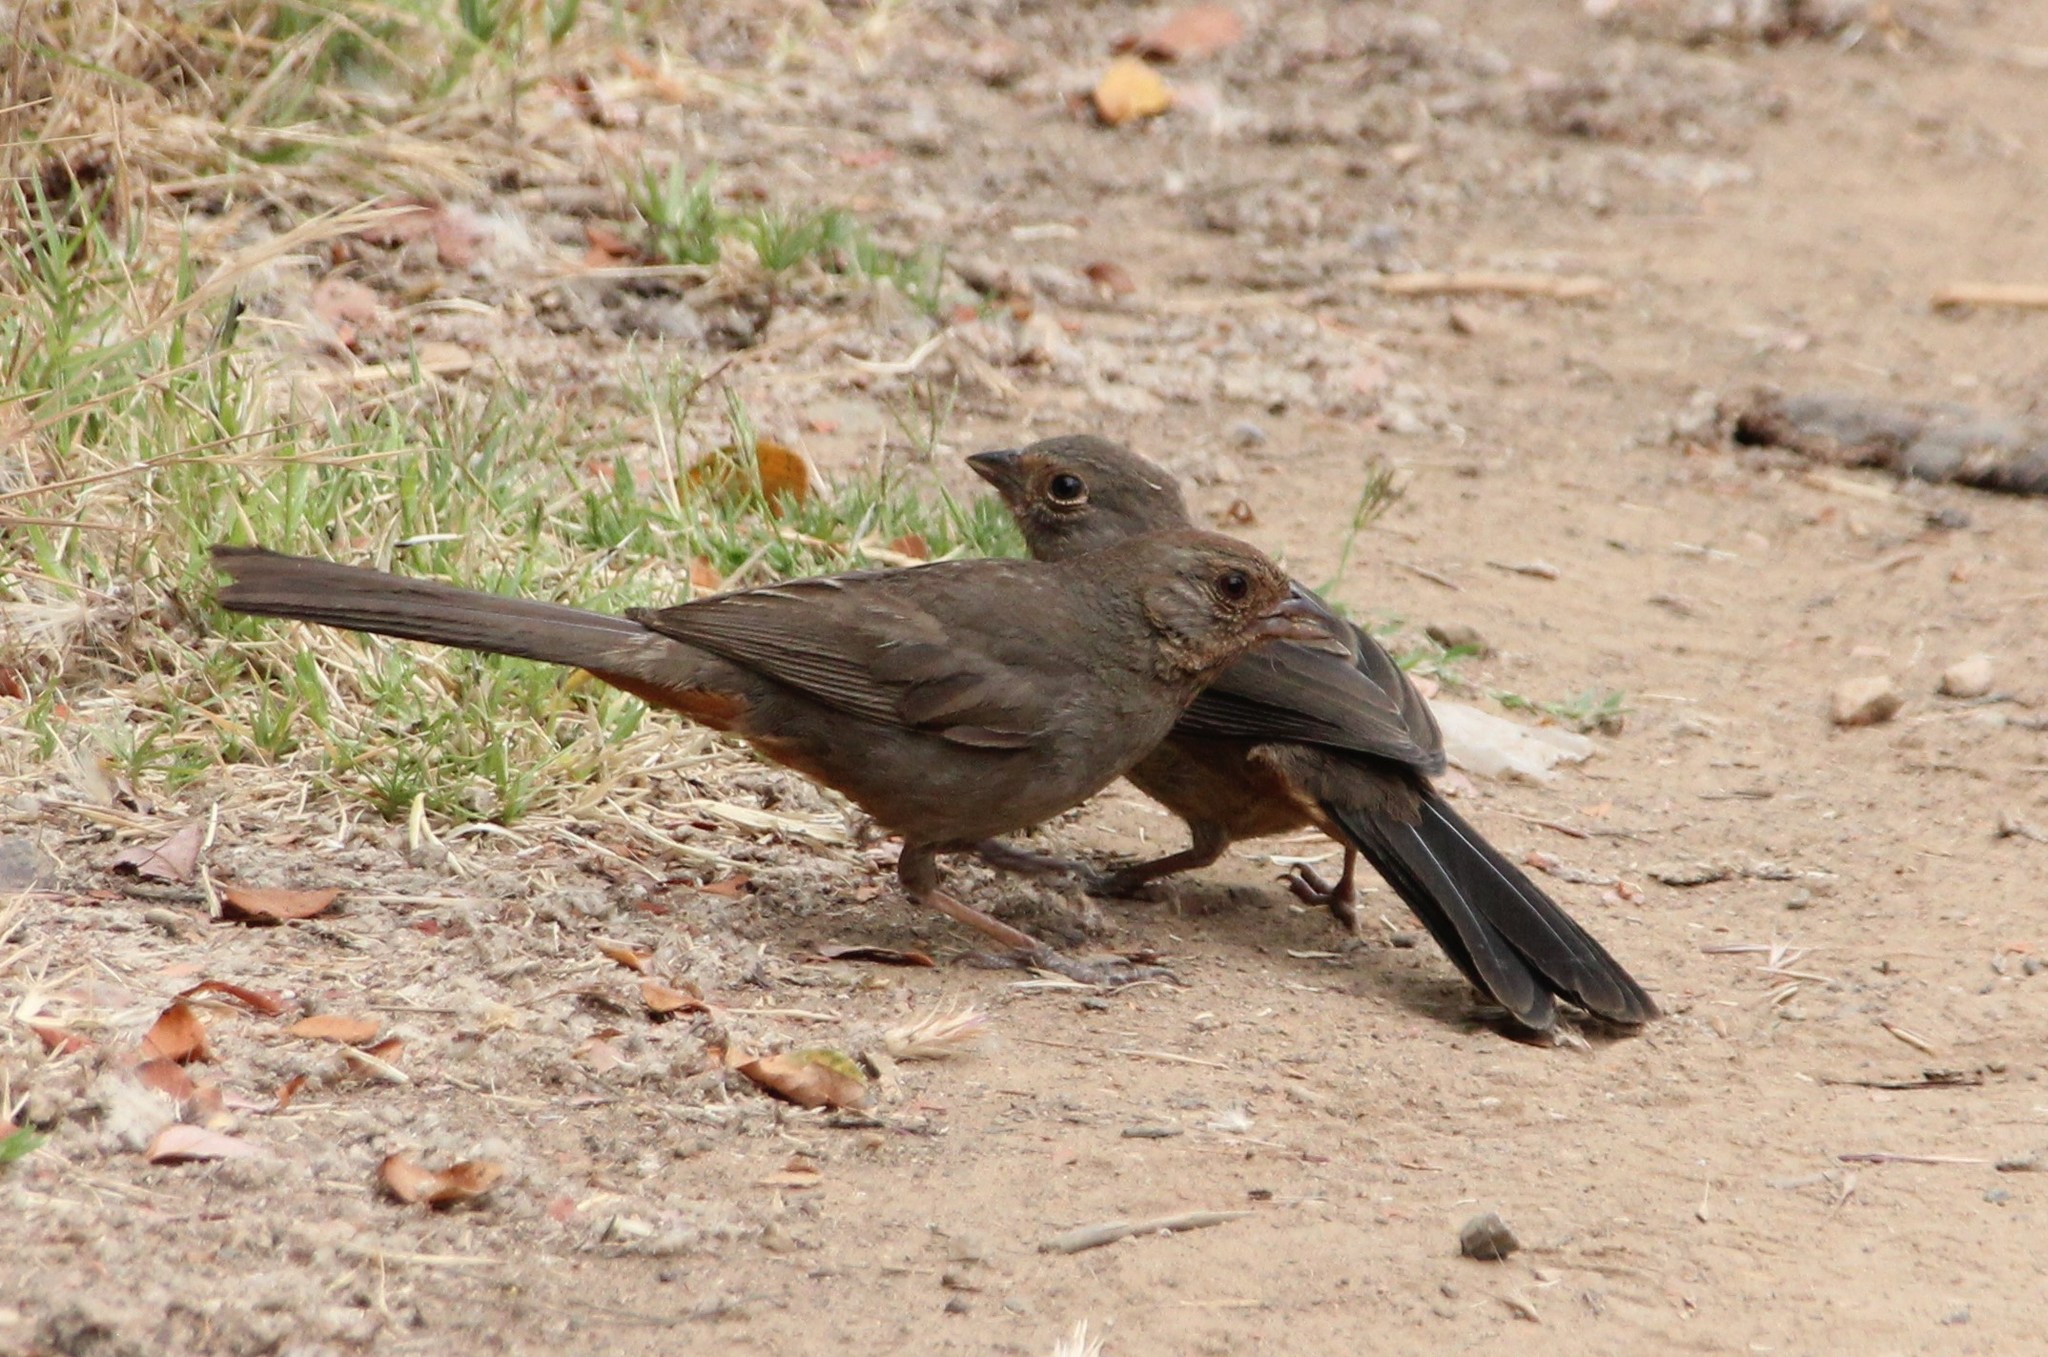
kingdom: Animalia
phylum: Chordata
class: Aves
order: Passeriformes
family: Passerellidae
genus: Melozone
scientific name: Melozone crissalis
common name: California towhee
